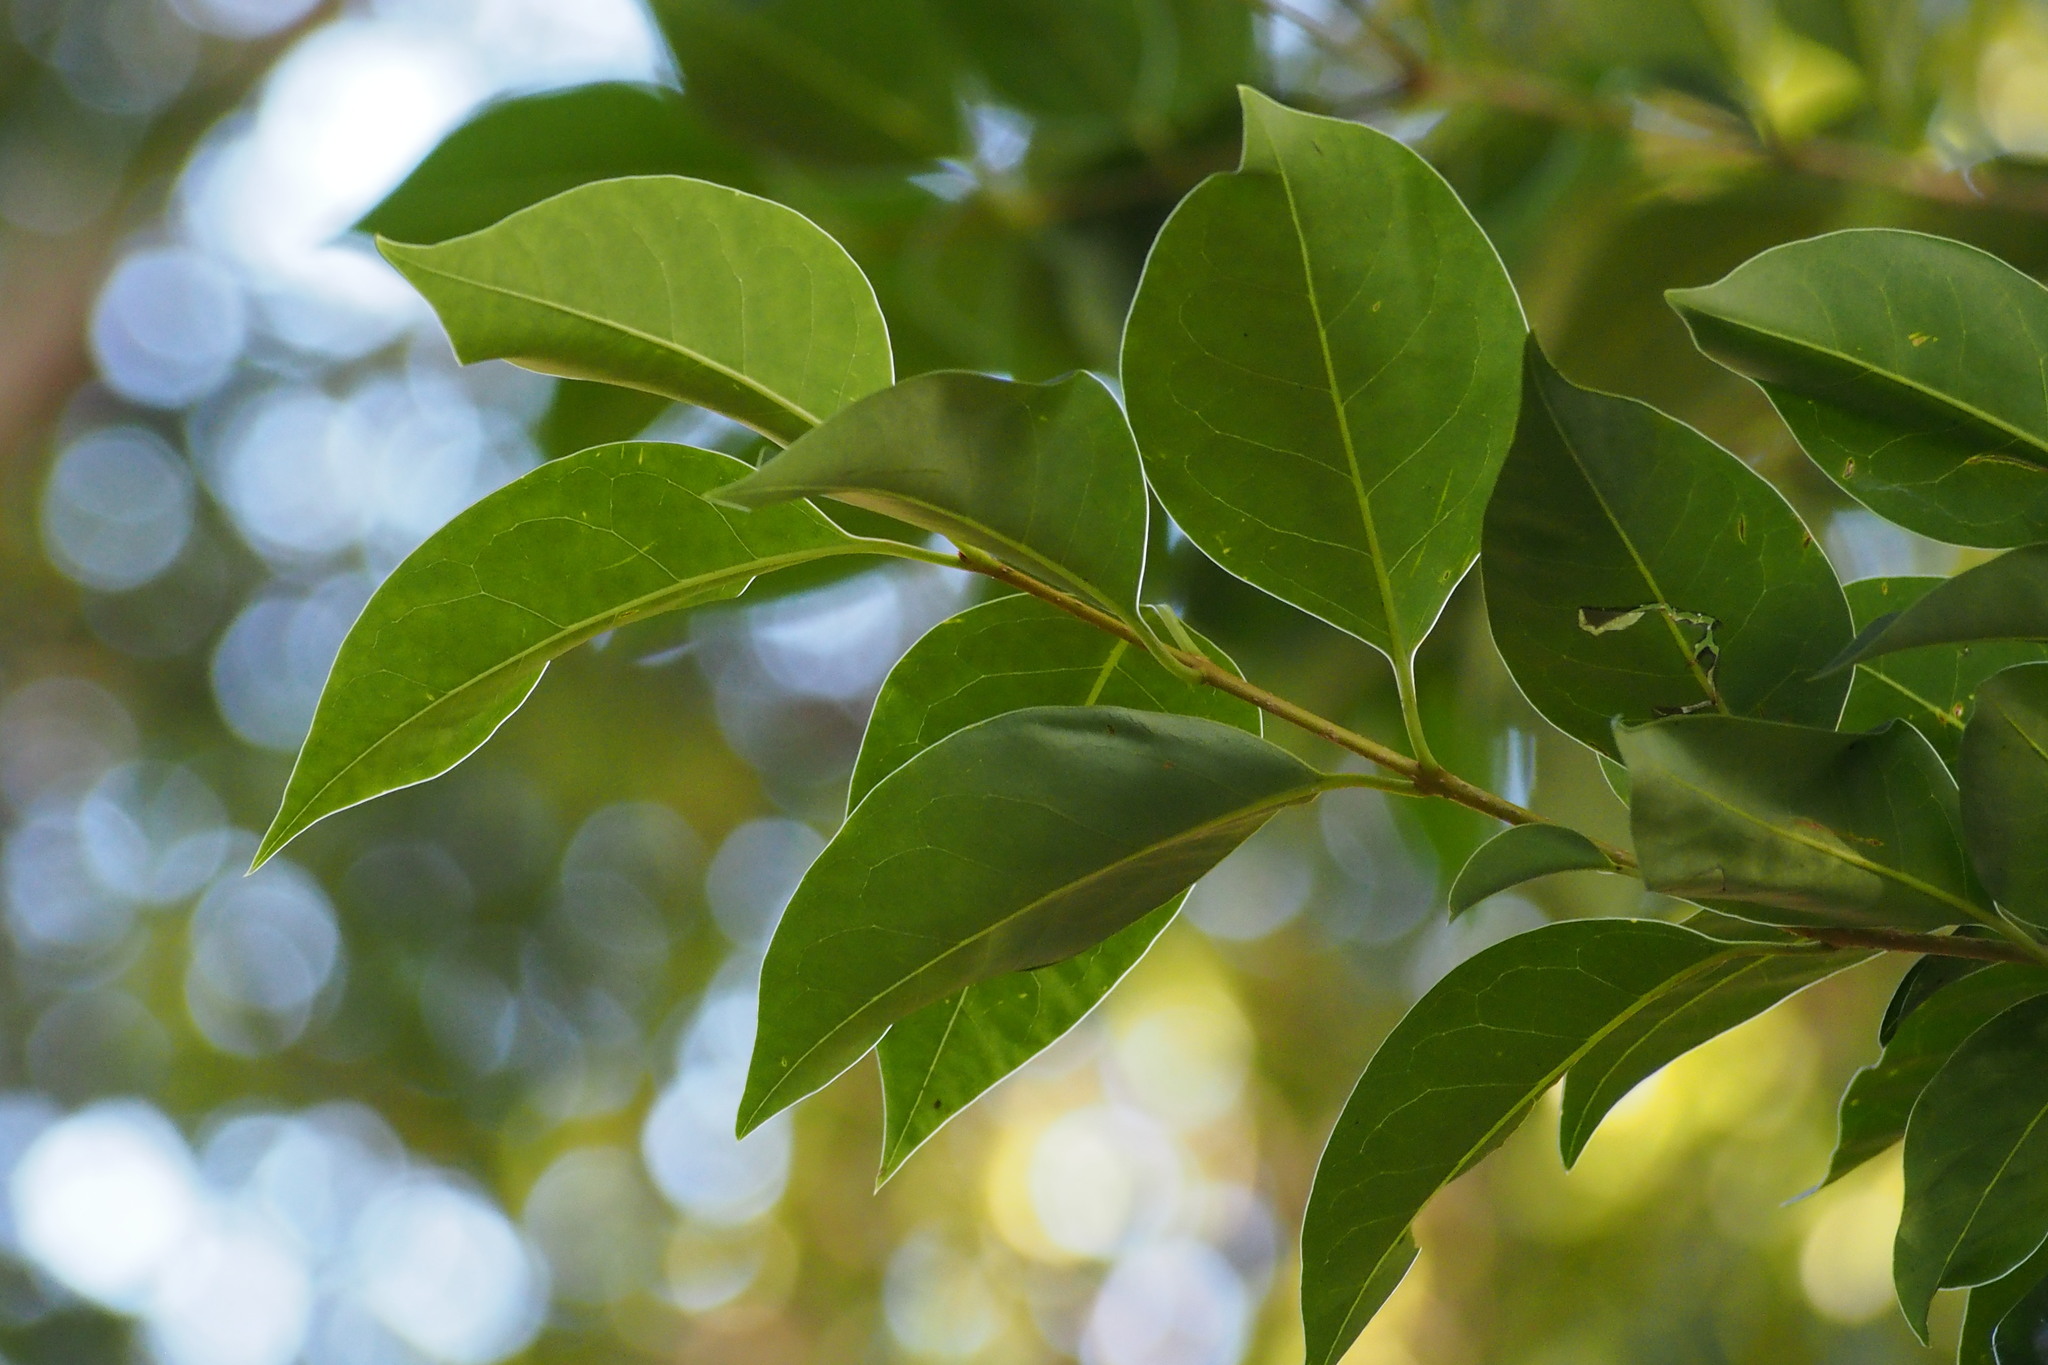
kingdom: Plantae
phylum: Tracheophyta
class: Magnoliopsida
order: Lamiales
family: Oleaceae
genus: Ligustrum
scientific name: Ligustrum lucidum
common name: Glossy privet
